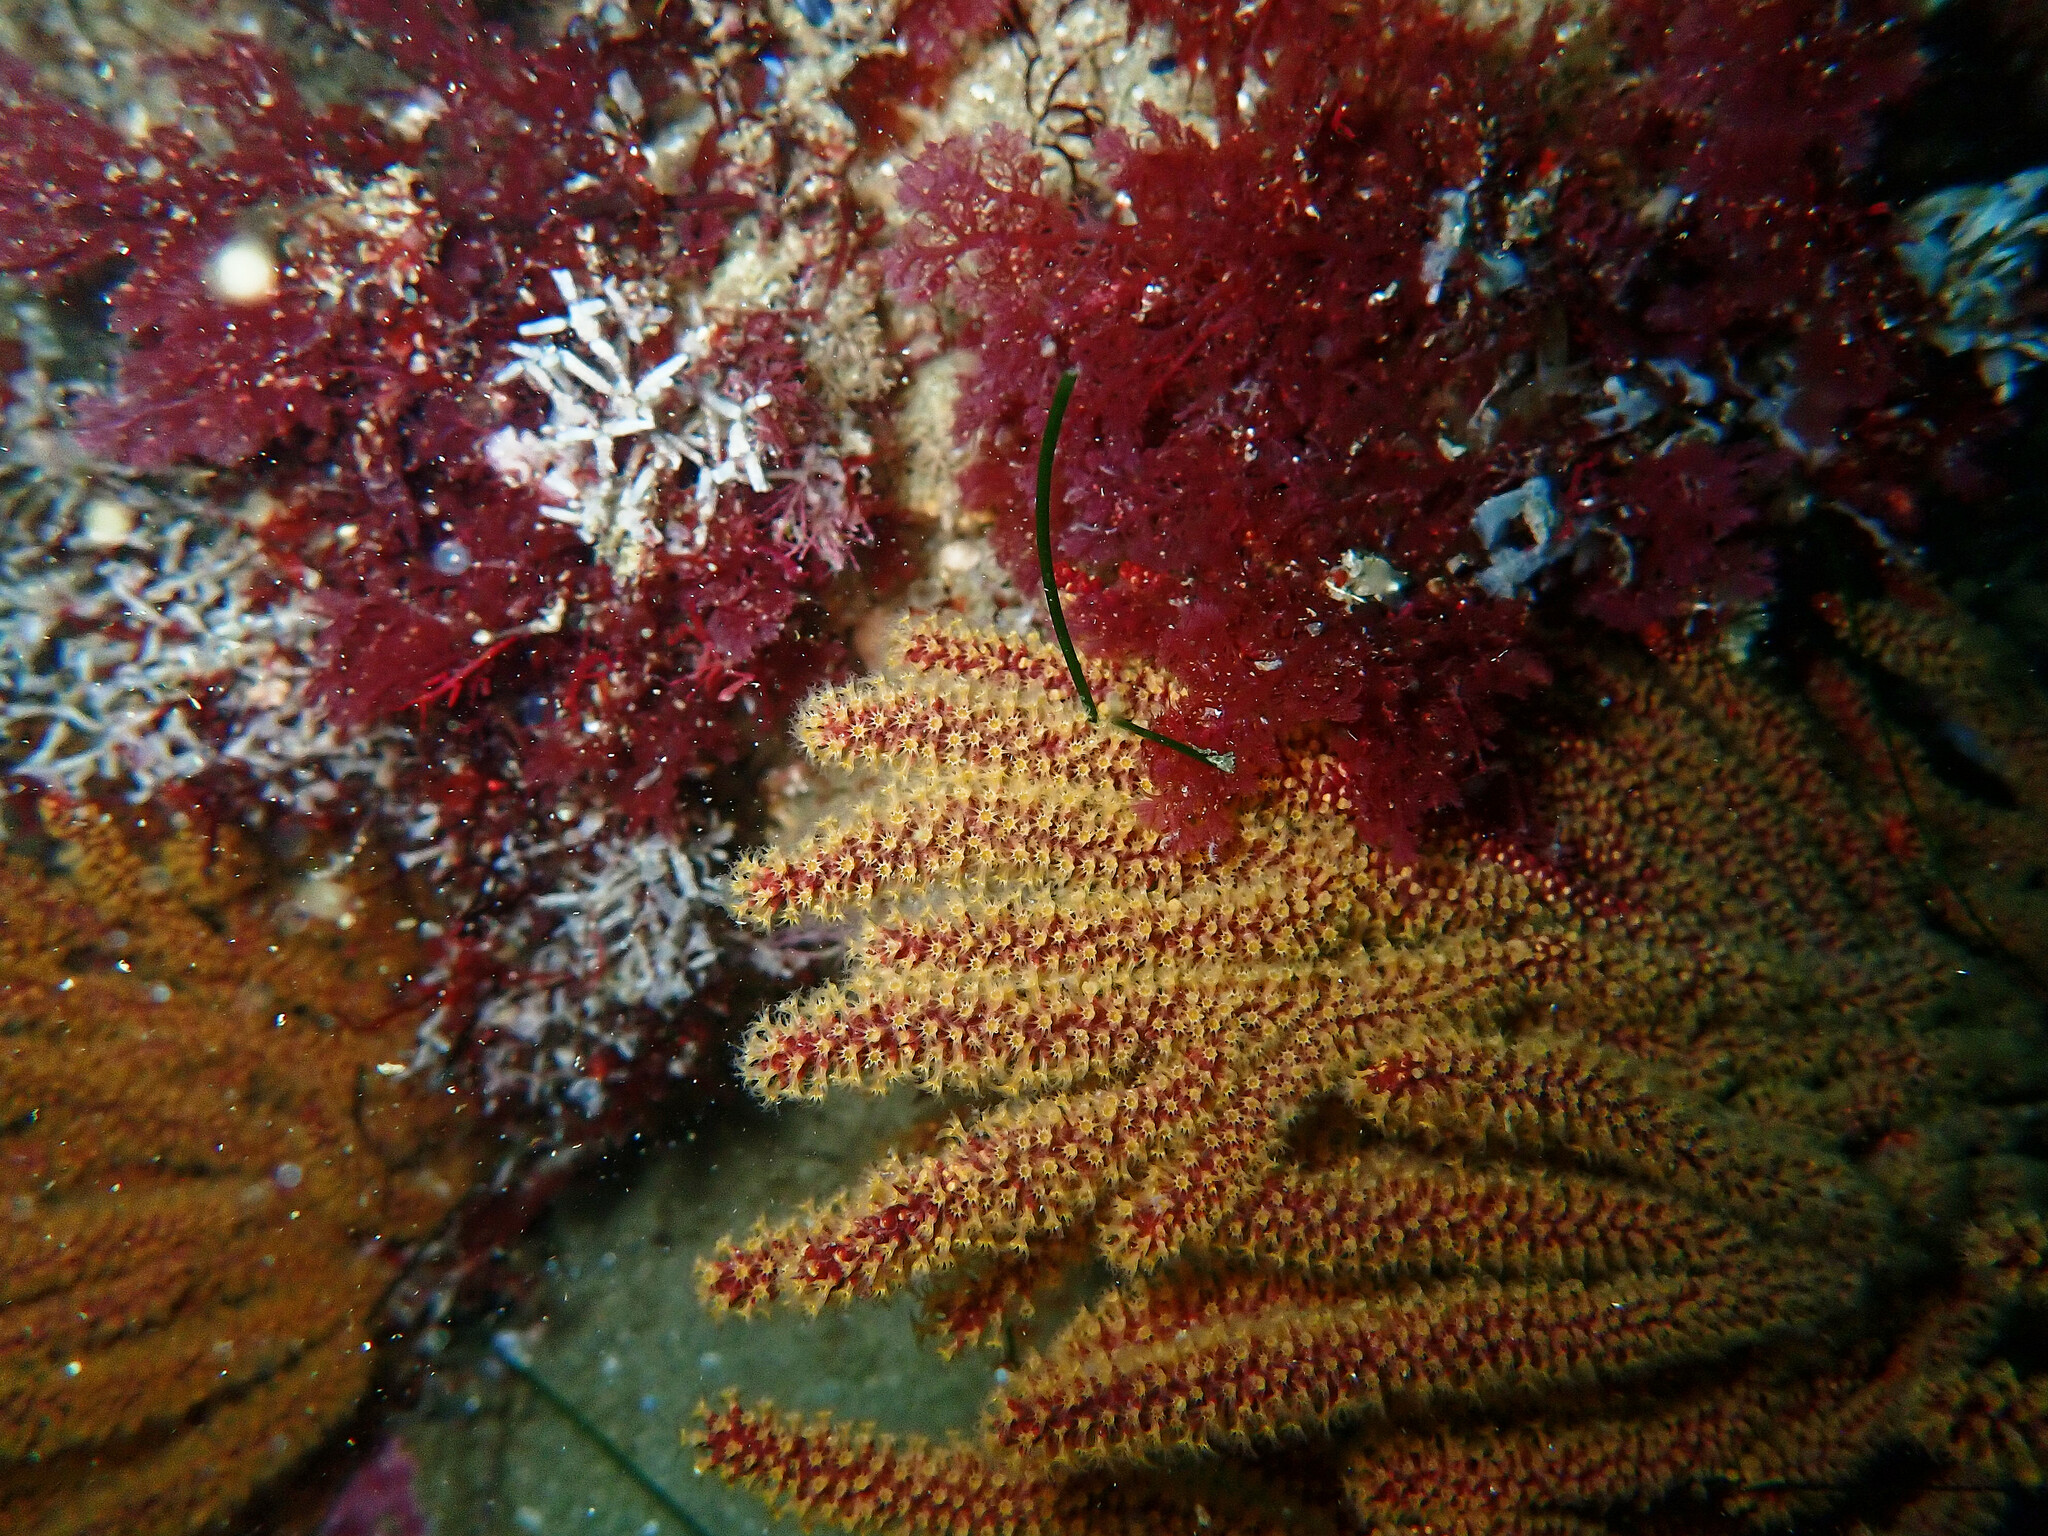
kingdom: Animalia
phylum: Cnidaria
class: Anthozoa
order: Malacalcyonacea
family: Plexauridae
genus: Muricea
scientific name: Muricea californica
